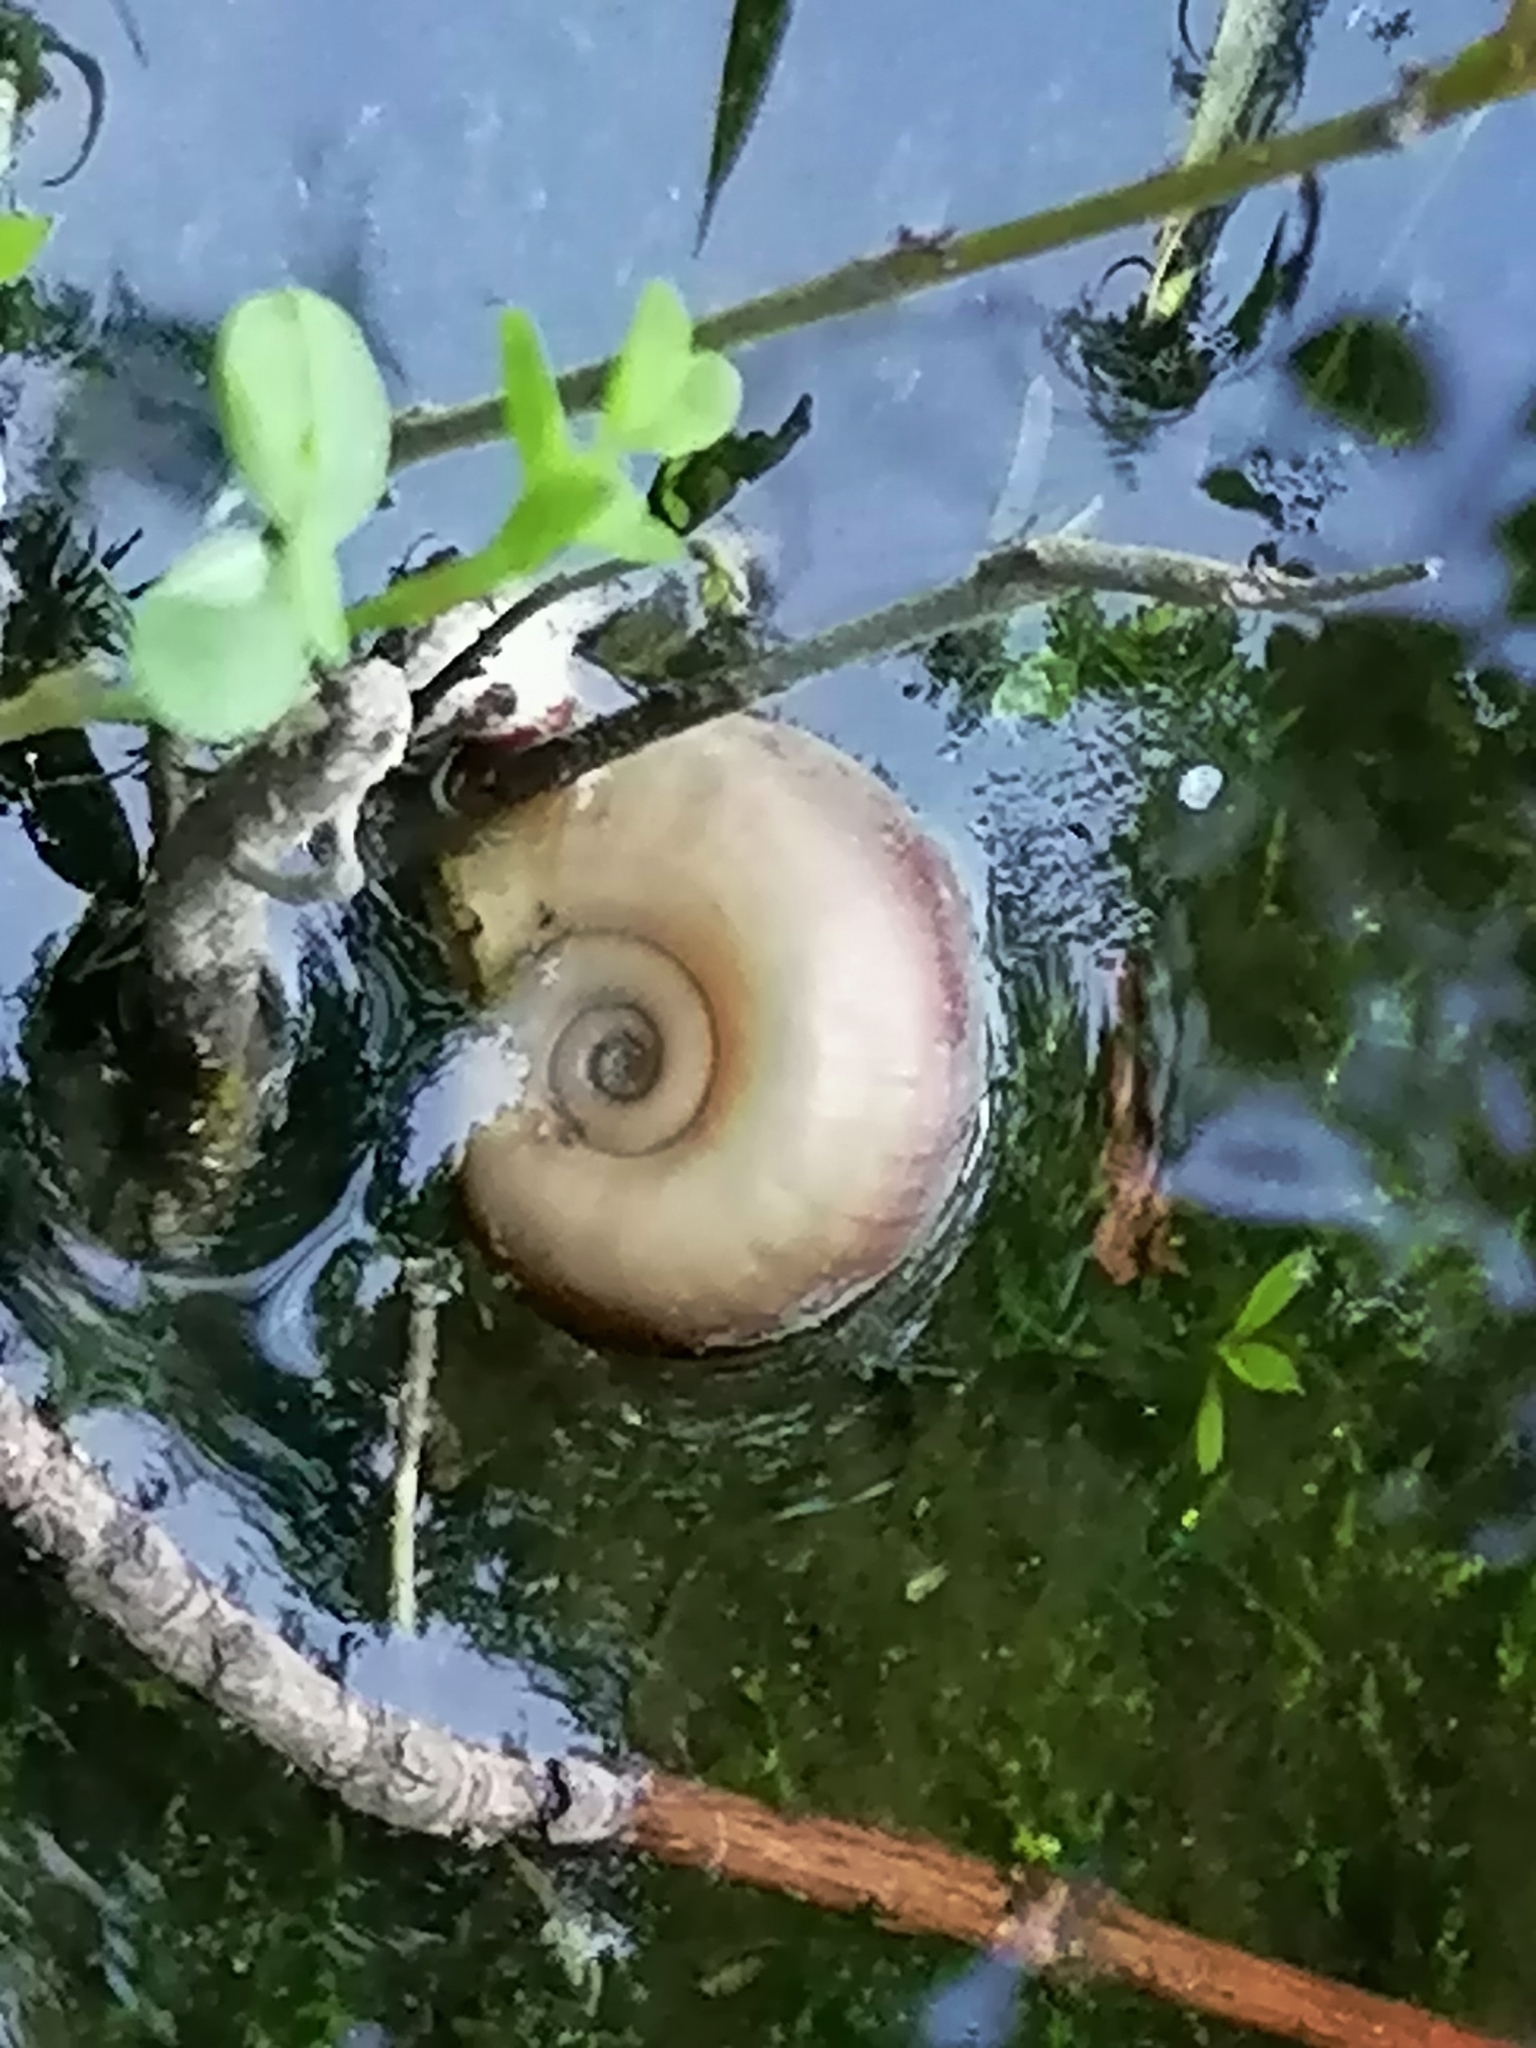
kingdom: Animalia
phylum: Mollusca
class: Gastropoda
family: Planorbidae
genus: Planorbarius
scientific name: Planorbarius corneus
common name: Great ramshorn
